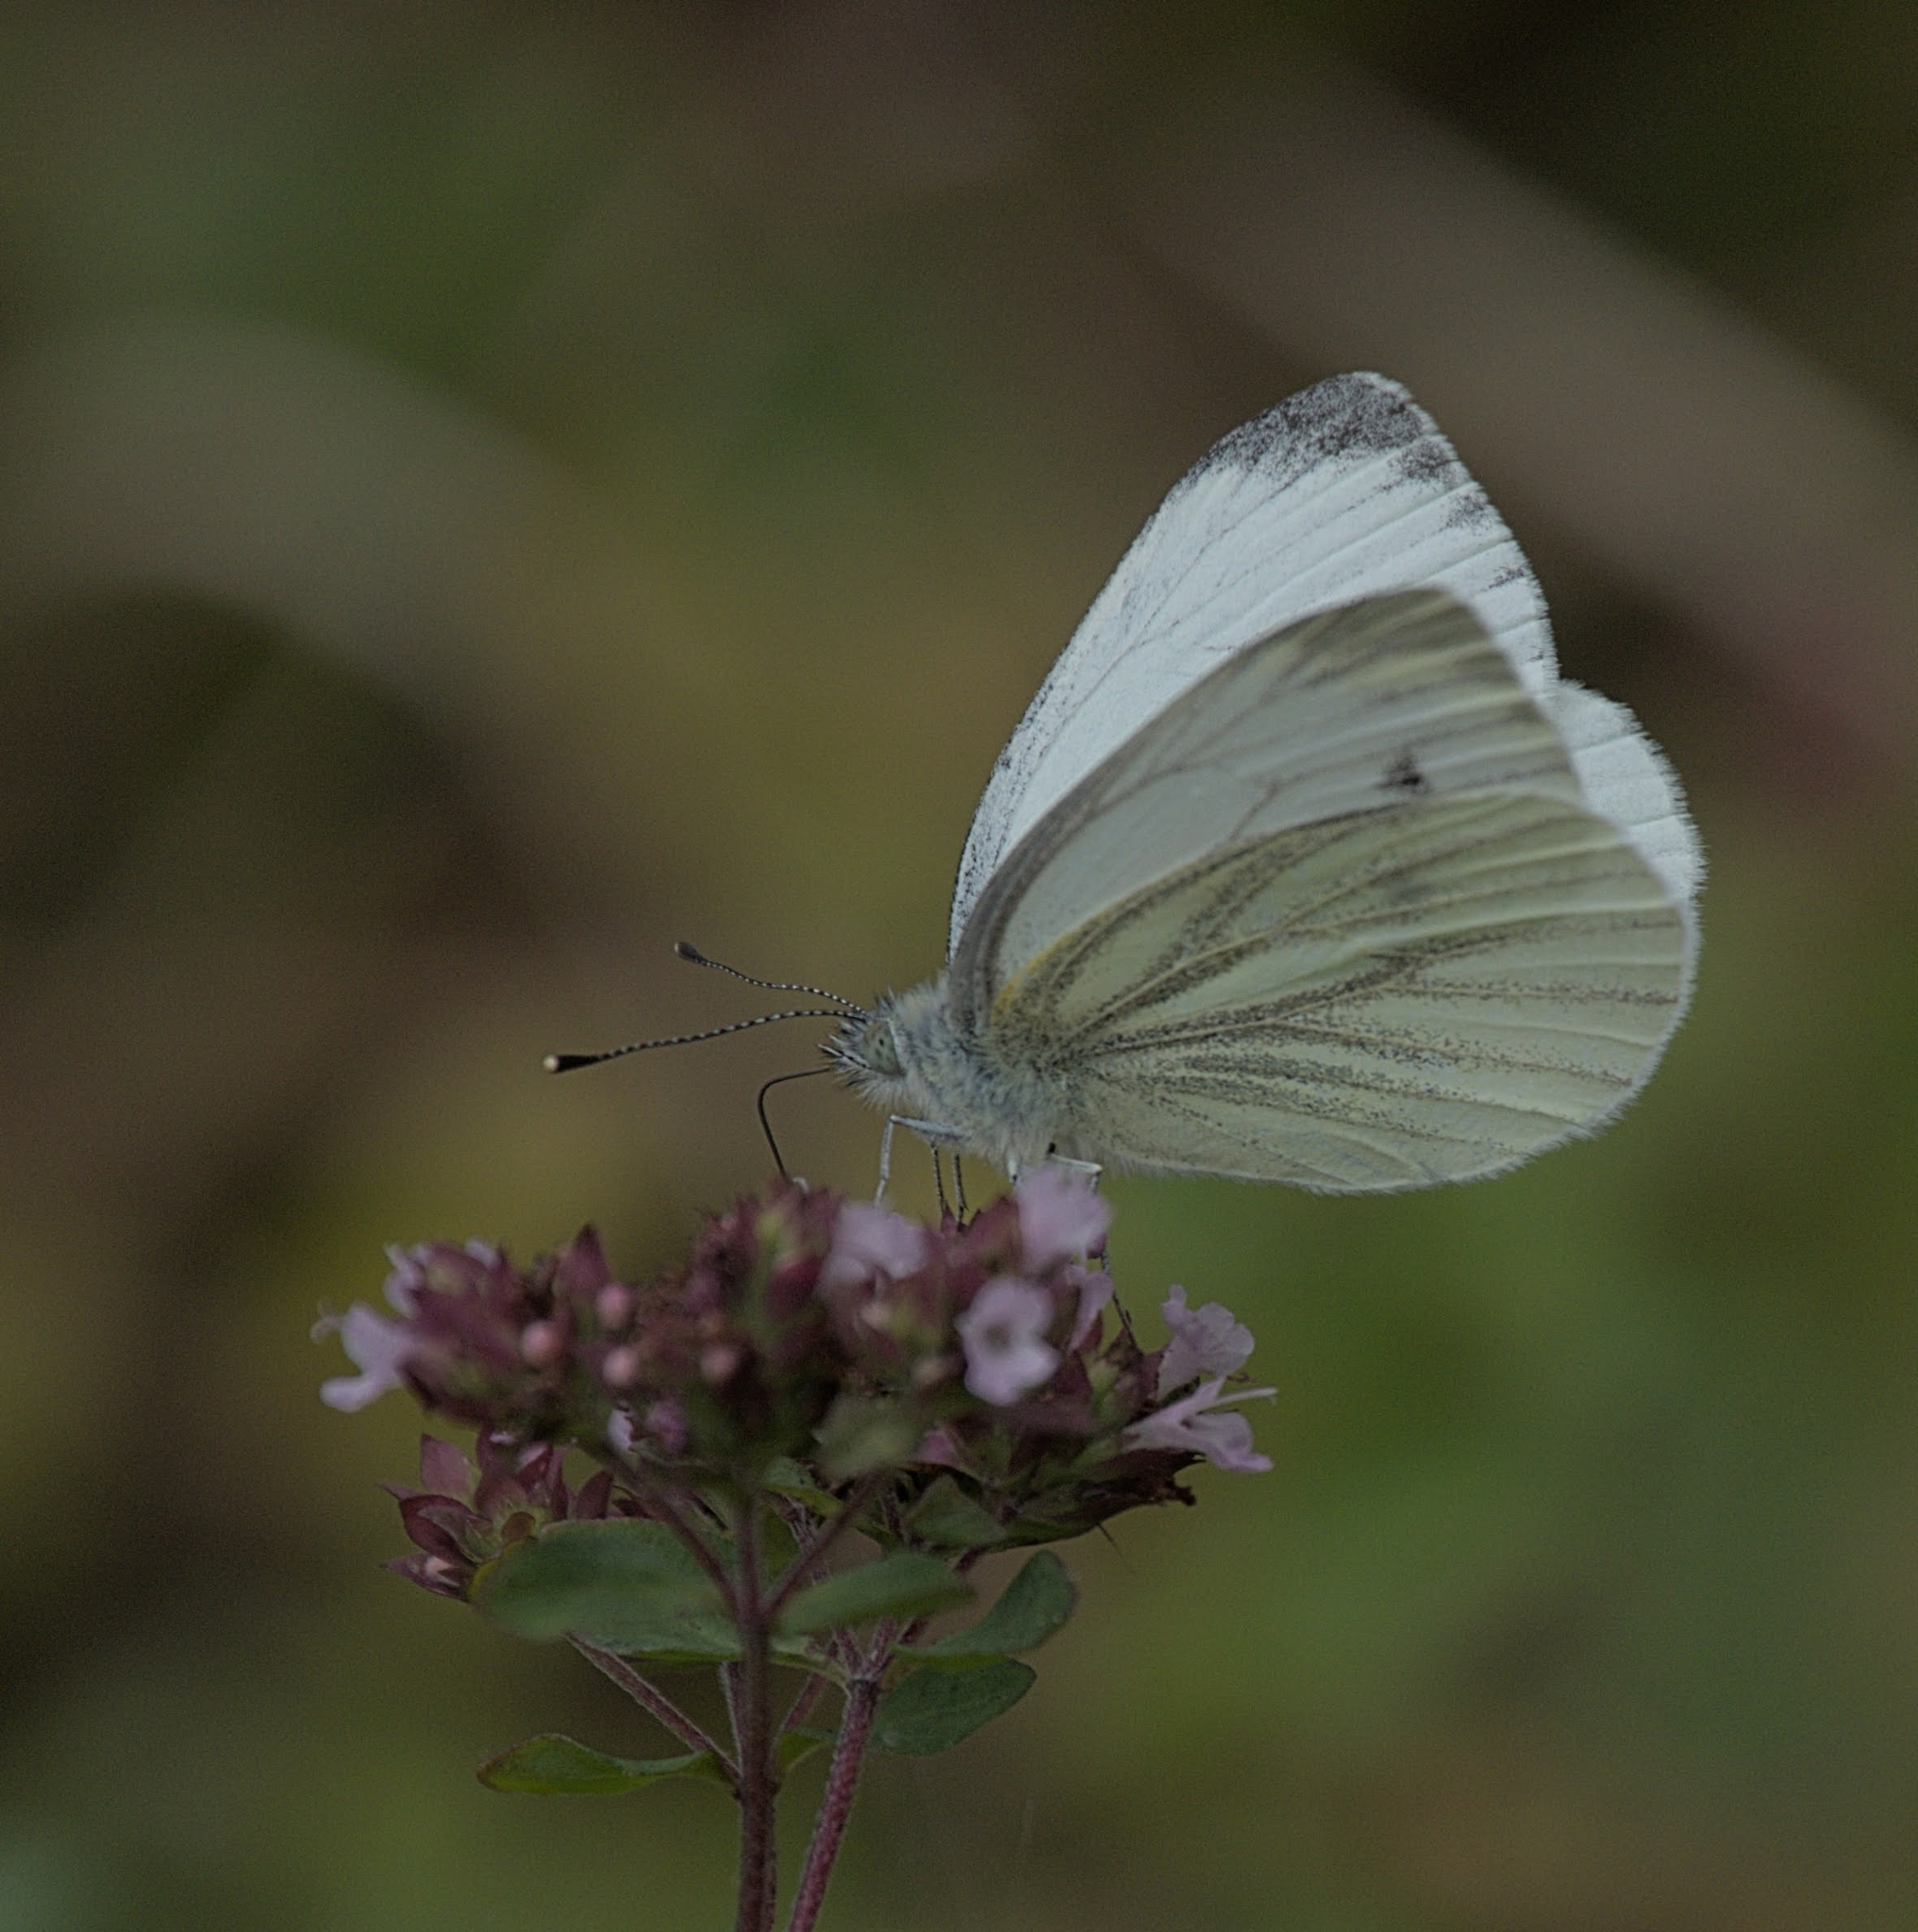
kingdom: Animalia
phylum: Arthropoda
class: Insecta
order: Lepidoptera
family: Pieridae
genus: Pieris
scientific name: Pieris napi
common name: Green-veined white
